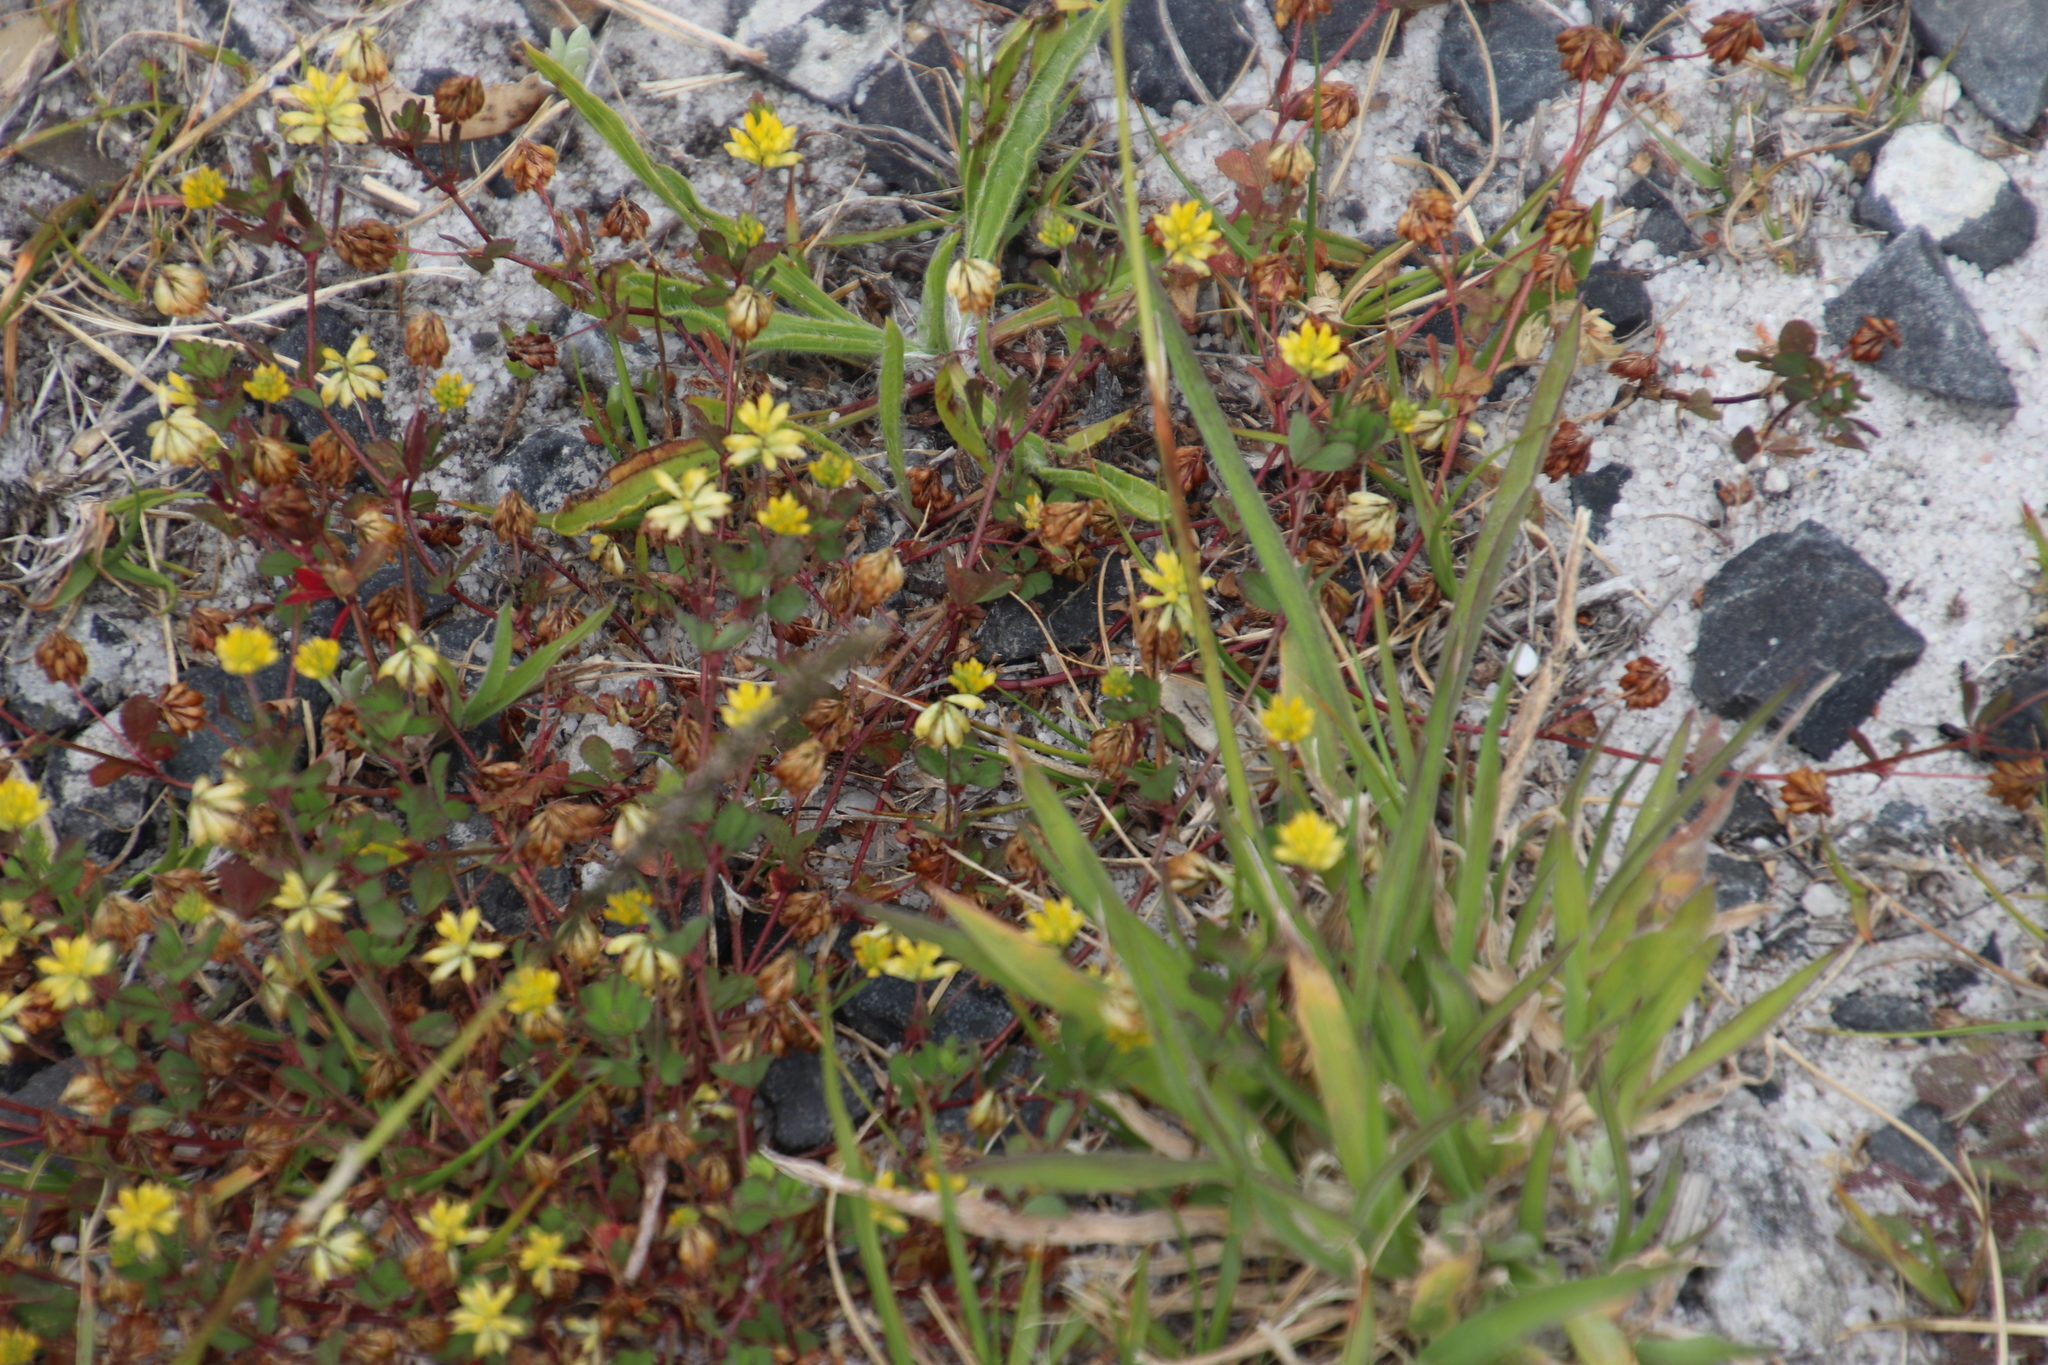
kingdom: Plantae
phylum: Tracheophyta
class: Magnoliopsida
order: Fabales
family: Fabaceae
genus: Trifolium
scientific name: Trifolium dubium
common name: Suckling clover
